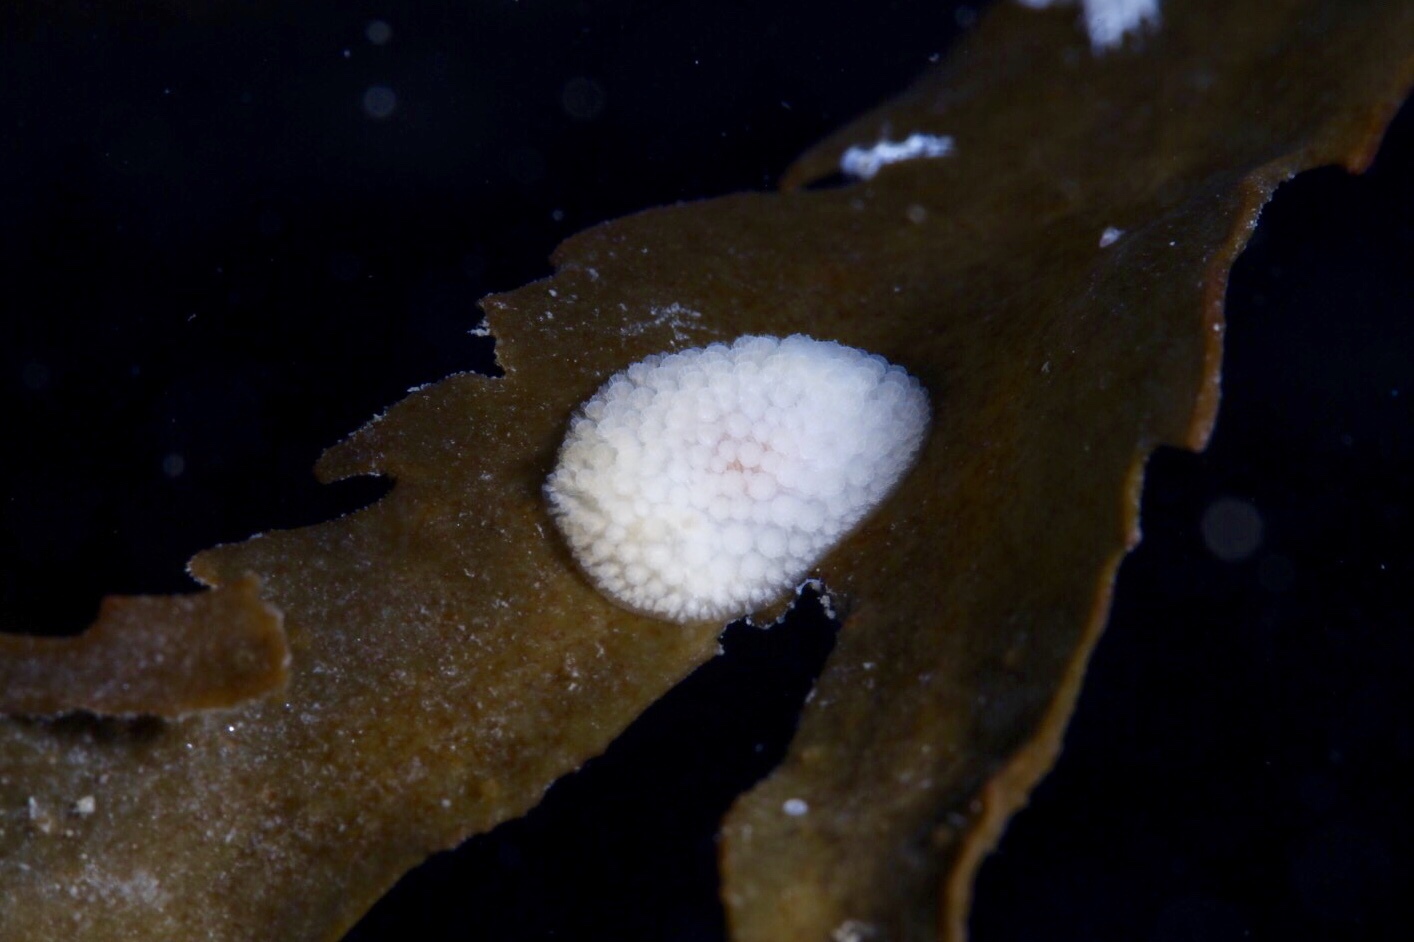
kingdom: Animalia
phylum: Mollusca
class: Gastropoda
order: Nudibranchia
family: Onchidorididae
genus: Onchidoris
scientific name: Onchidoris muricata
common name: Rough doris
